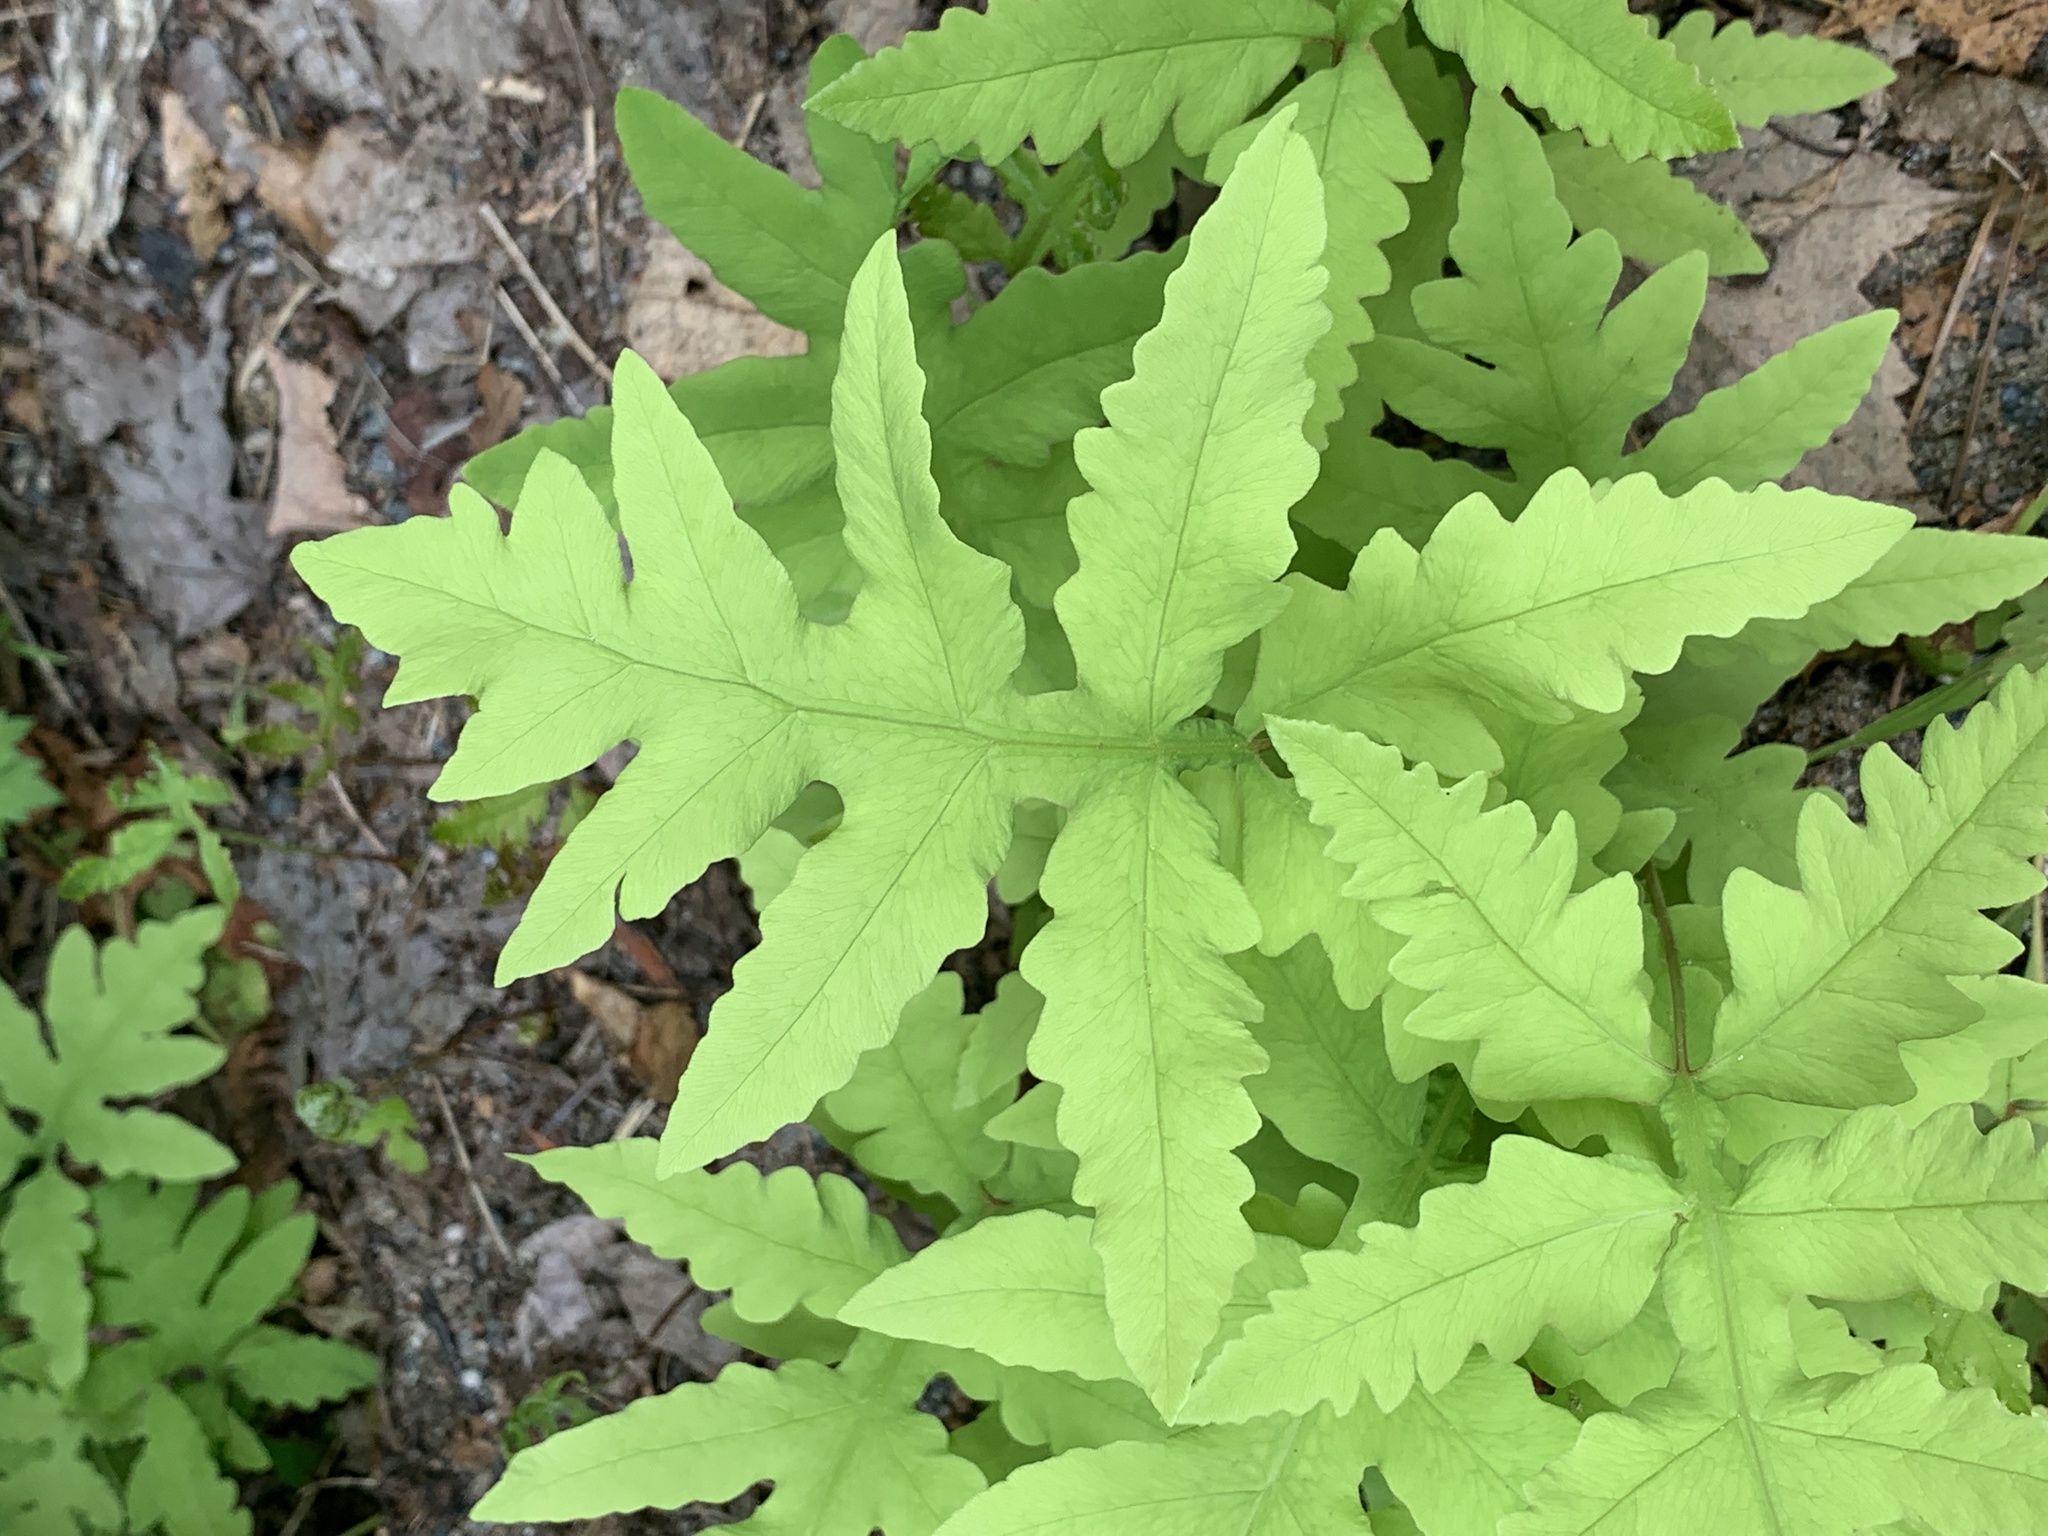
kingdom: Plantae
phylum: Tracheophyta
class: Polypodiopsida
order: Polypodiales
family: Onocleaceae
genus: Onoclea
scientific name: Onoclea sensibilis
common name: Sensitive fern
